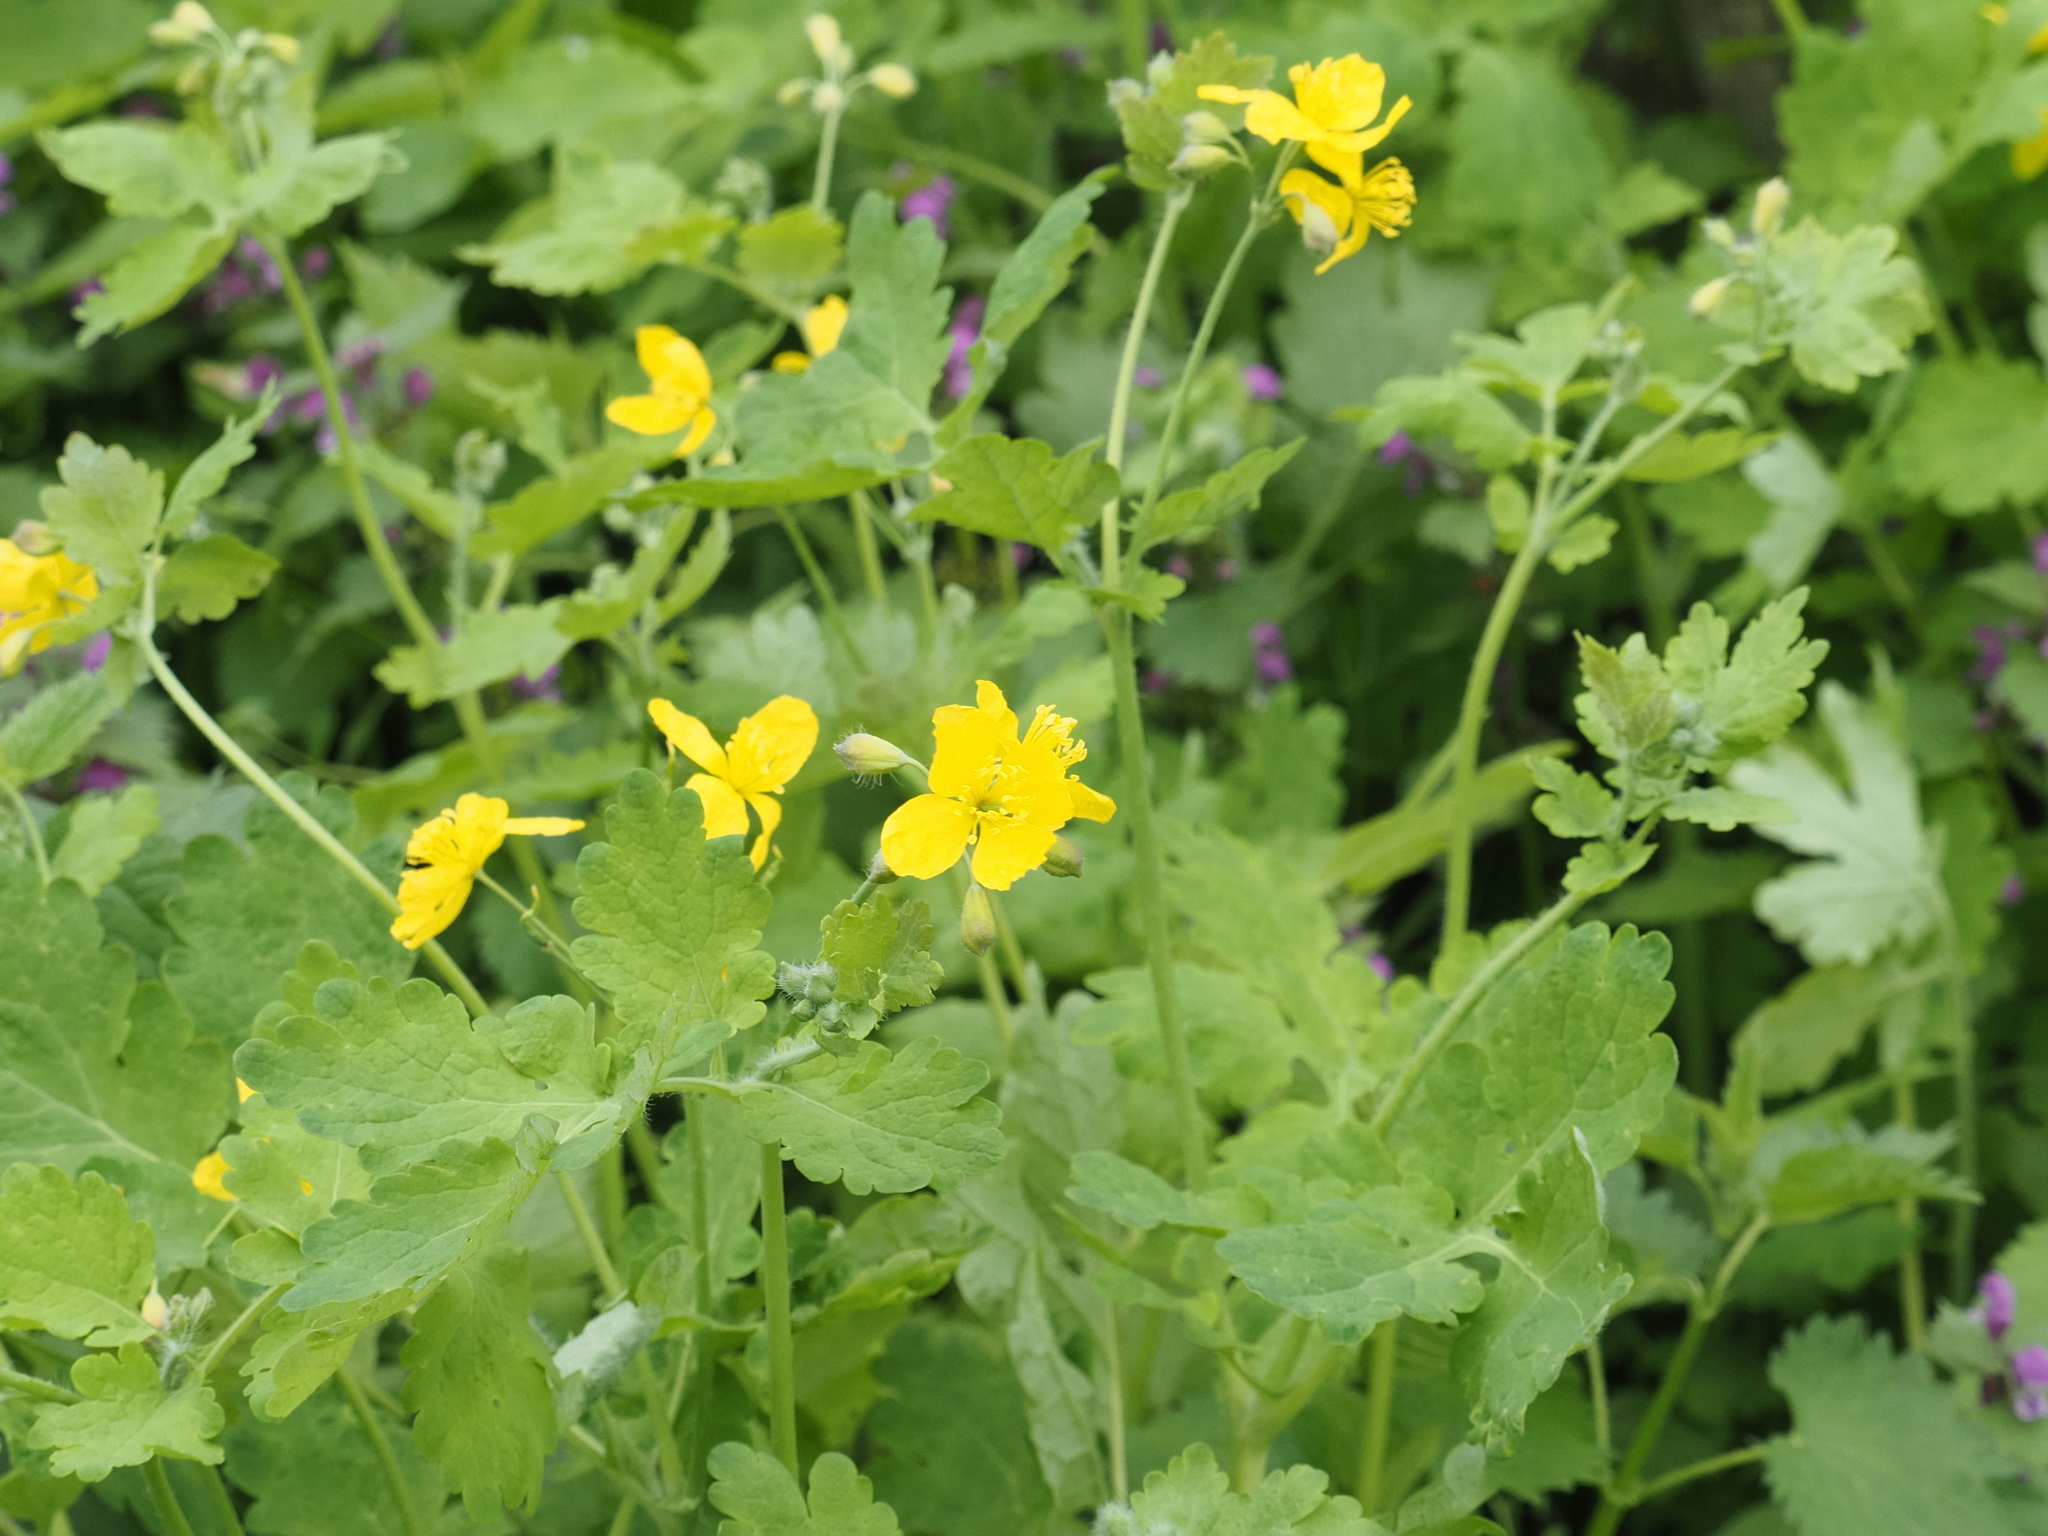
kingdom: Plantae
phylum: Tracheophyta
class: Magnoliopsida
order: Ranunculales
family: Papaveraceae
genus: Chelidonium
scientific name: Chelidonium majus
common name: Greater celandine
